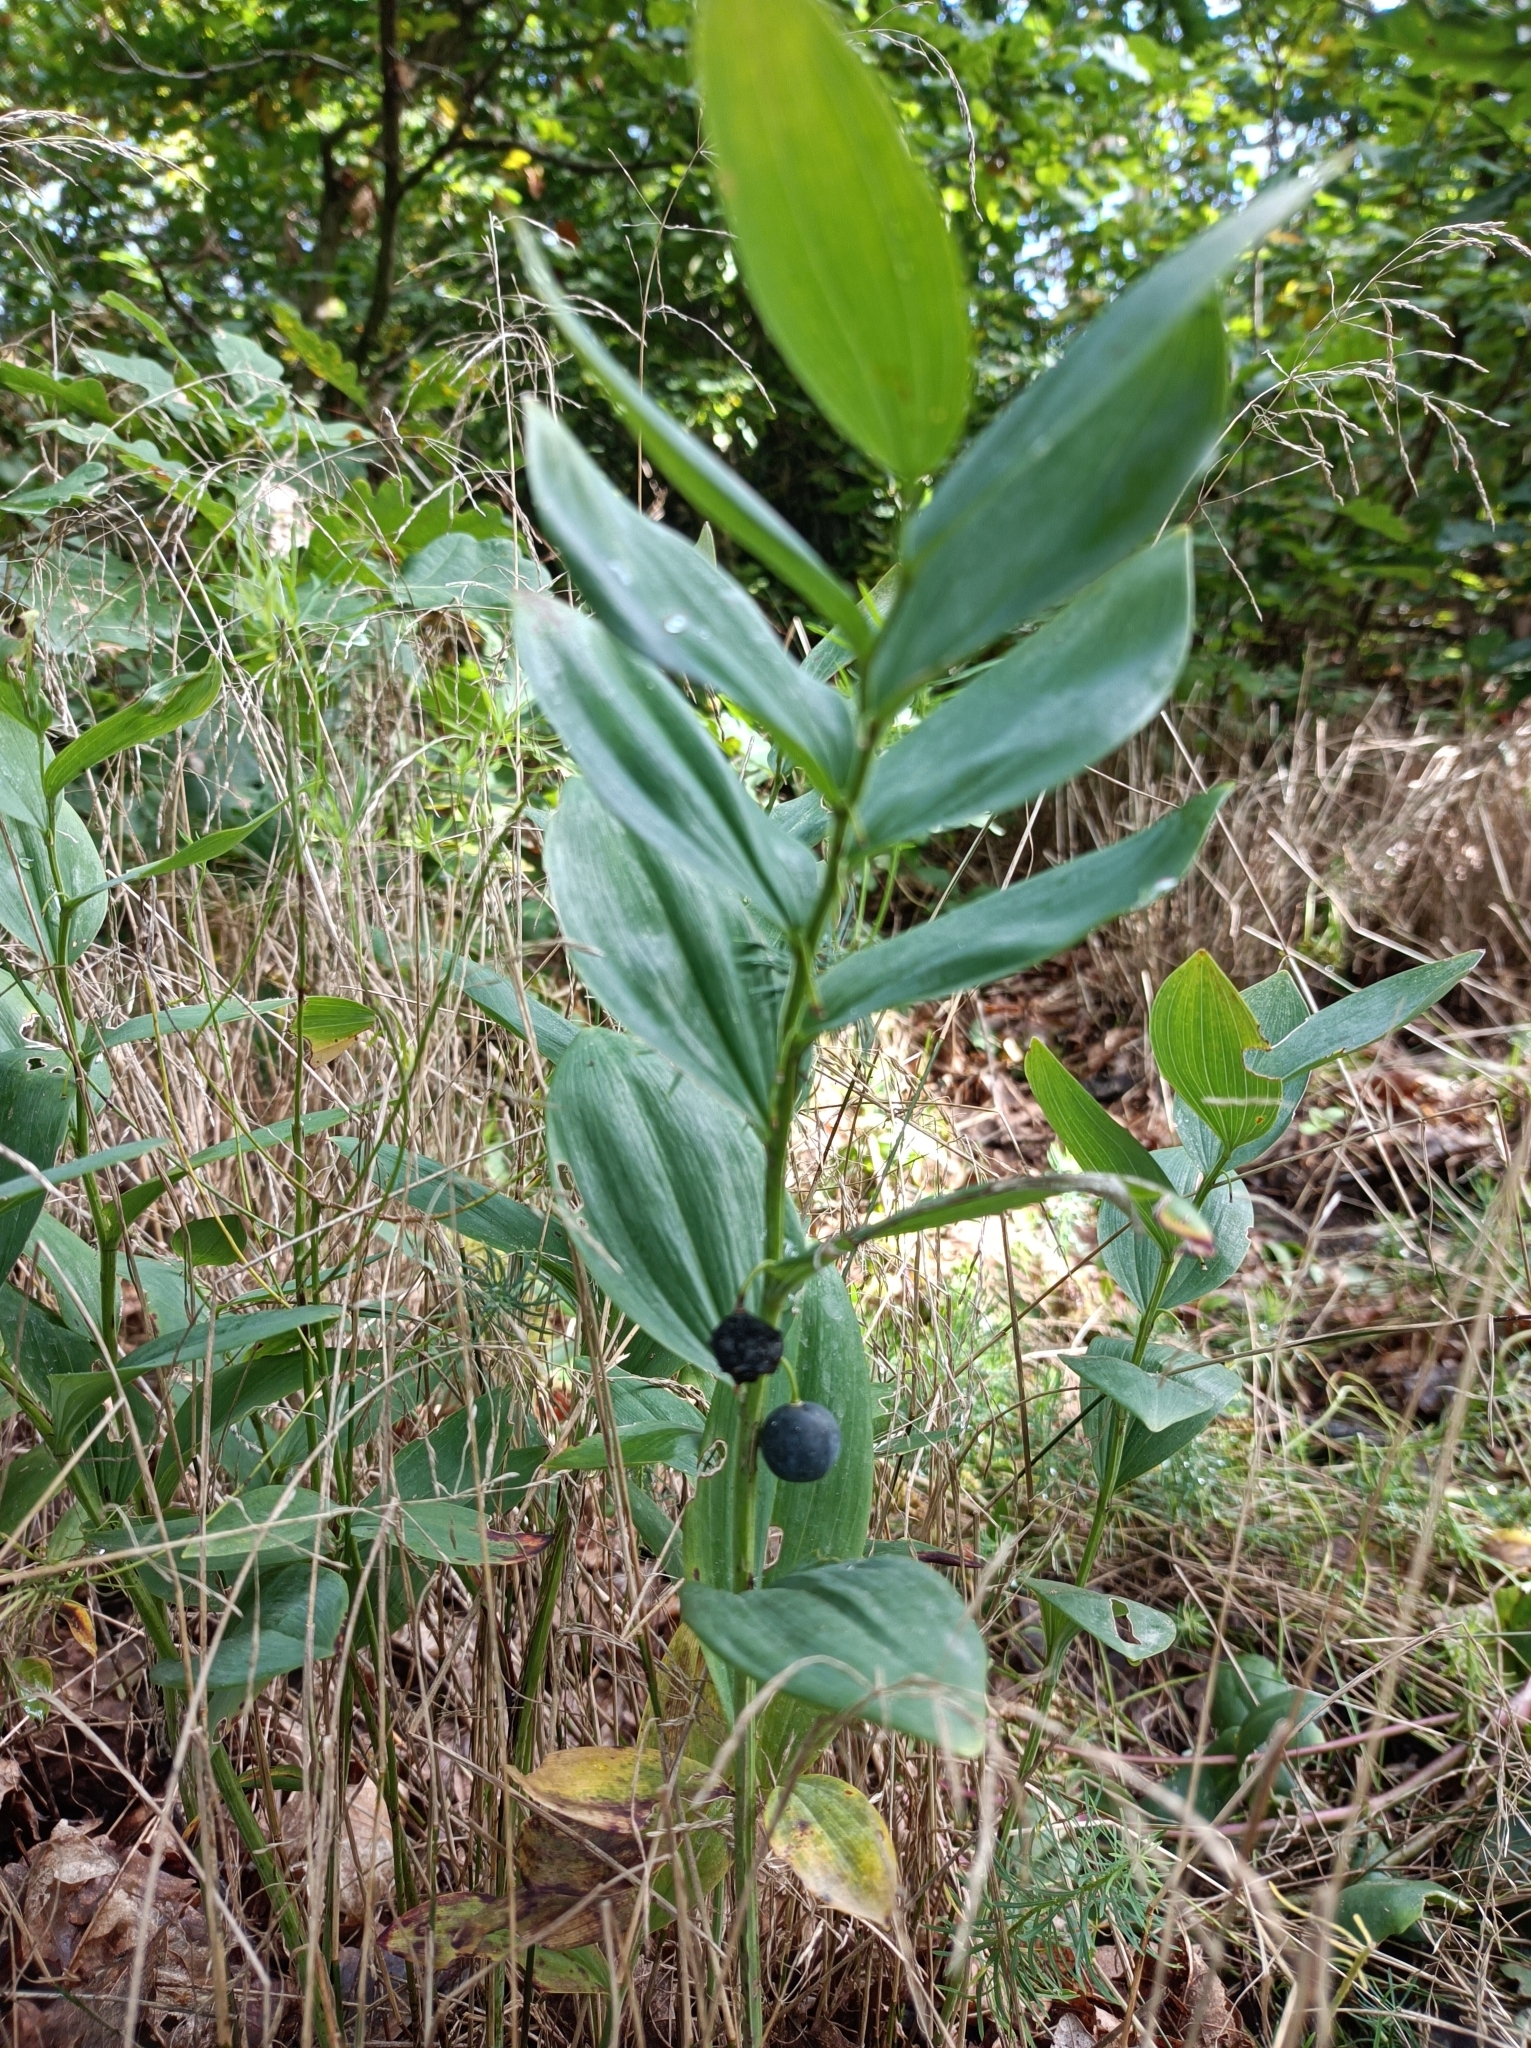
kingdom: Plantae
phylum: Tracheophyta
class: Liliopsida
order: Asparagales
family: Asparagaceae
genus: Polygonatum
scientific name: Polygonatum odoratum
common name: Angular solomon's-seal
